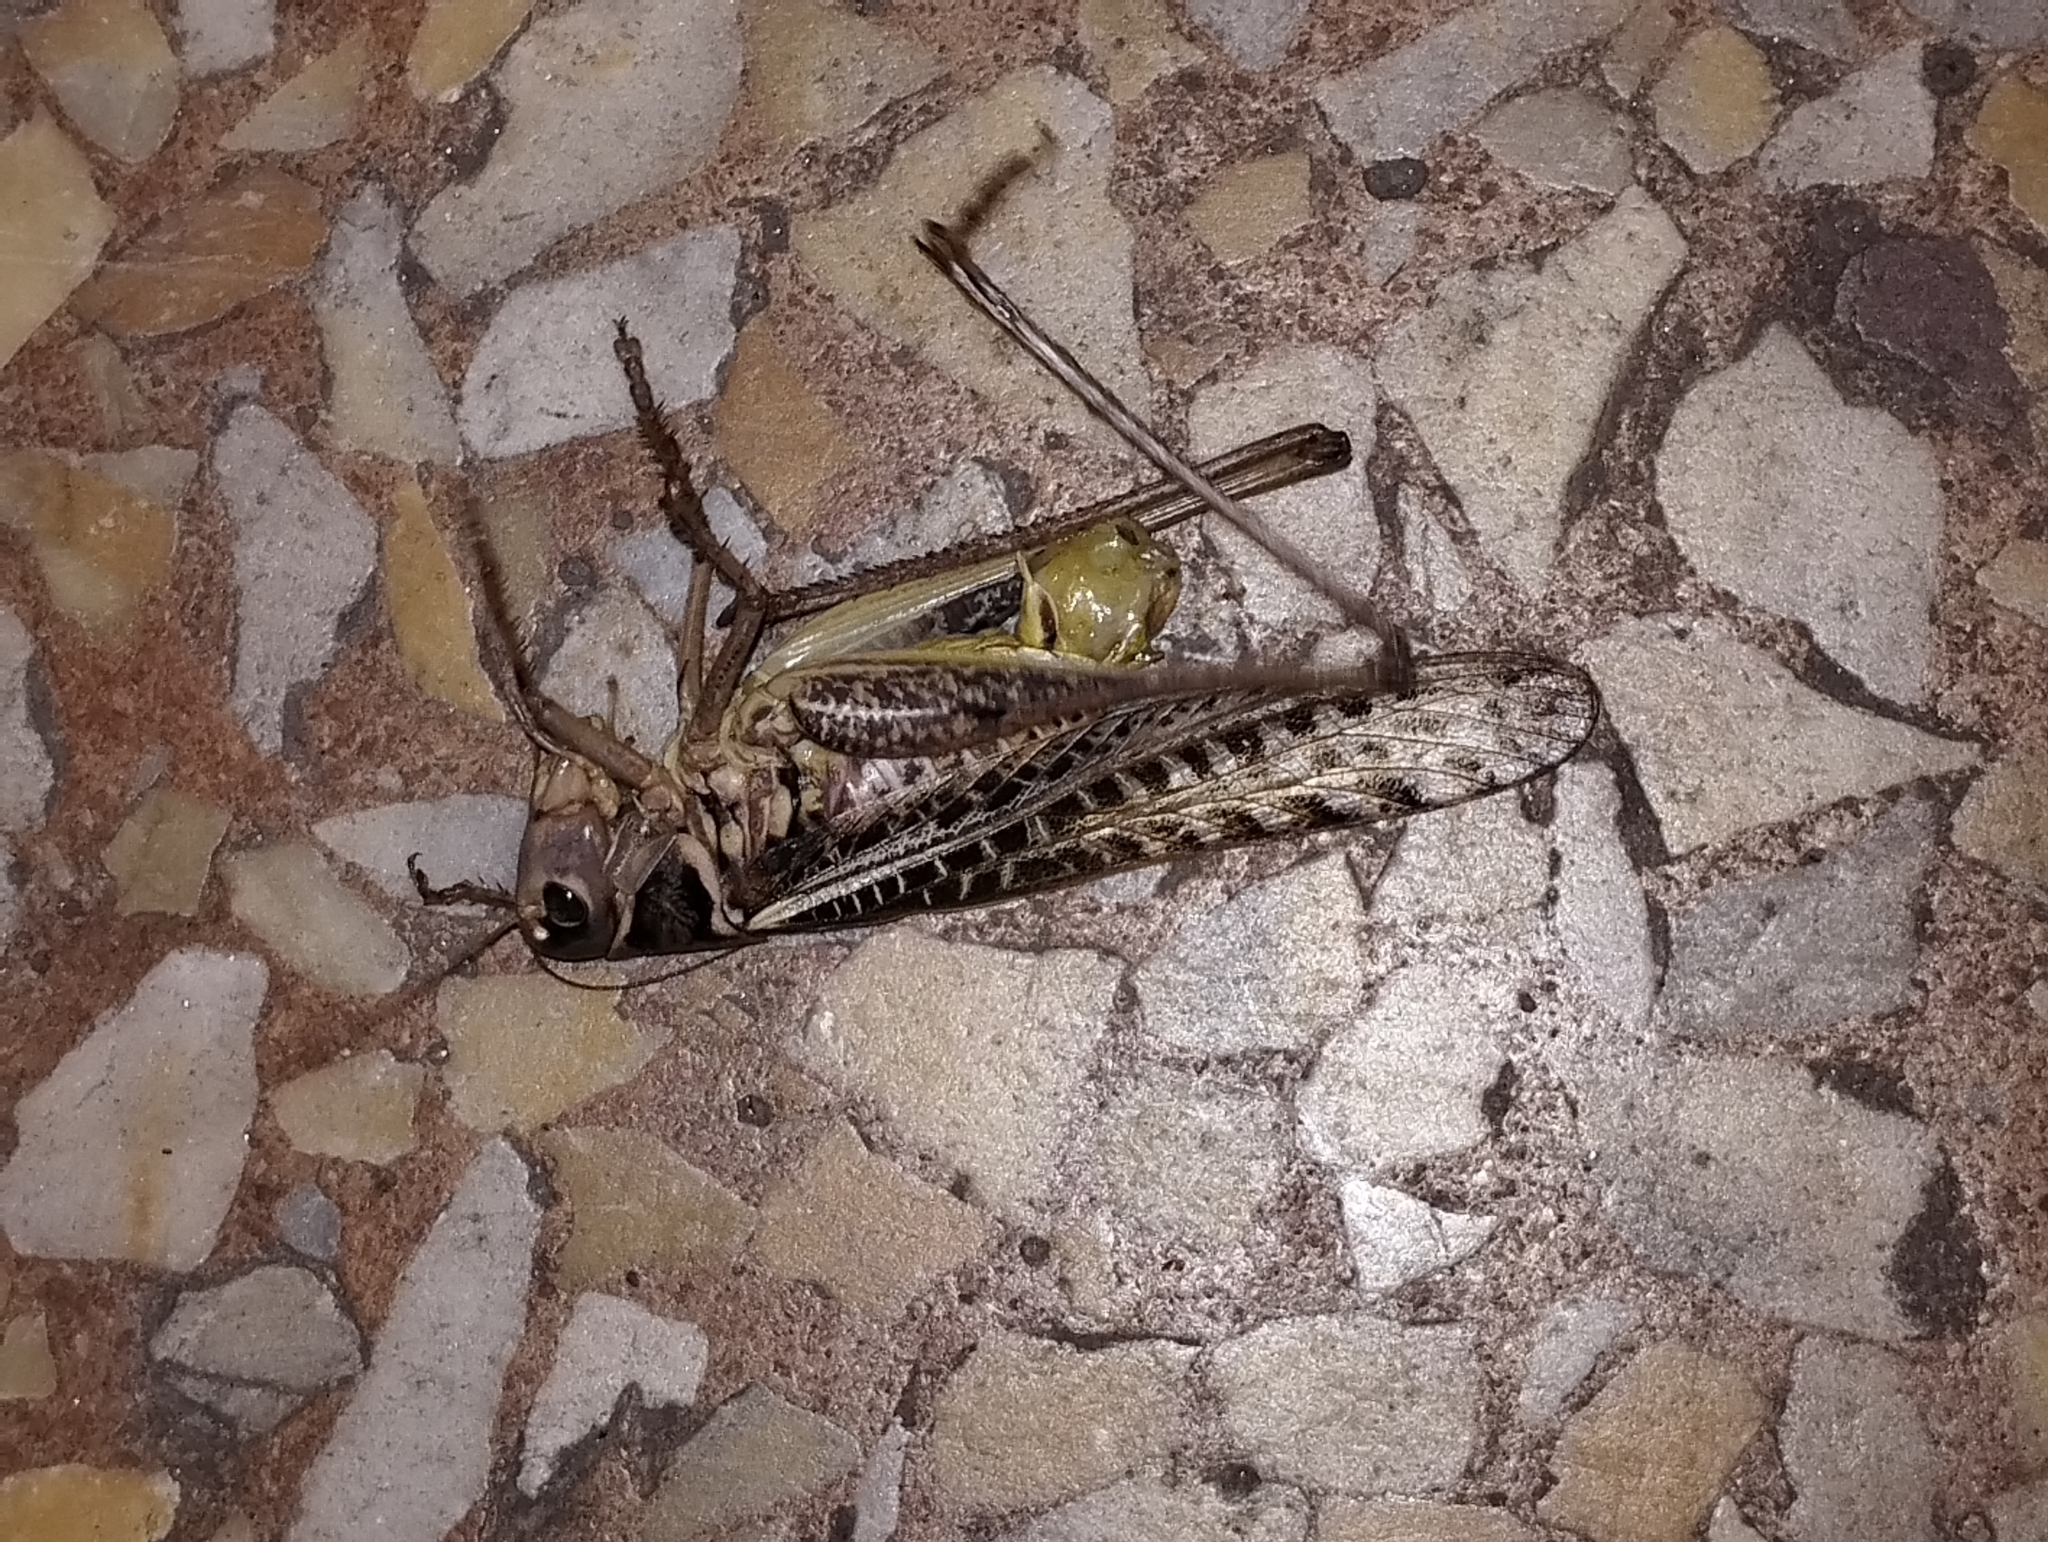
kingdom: Animalia
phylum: Arthropoda
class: Insecta
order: Orthoptera
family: Tettigoniidae
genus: Decticus
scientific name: Decticus albifrons
